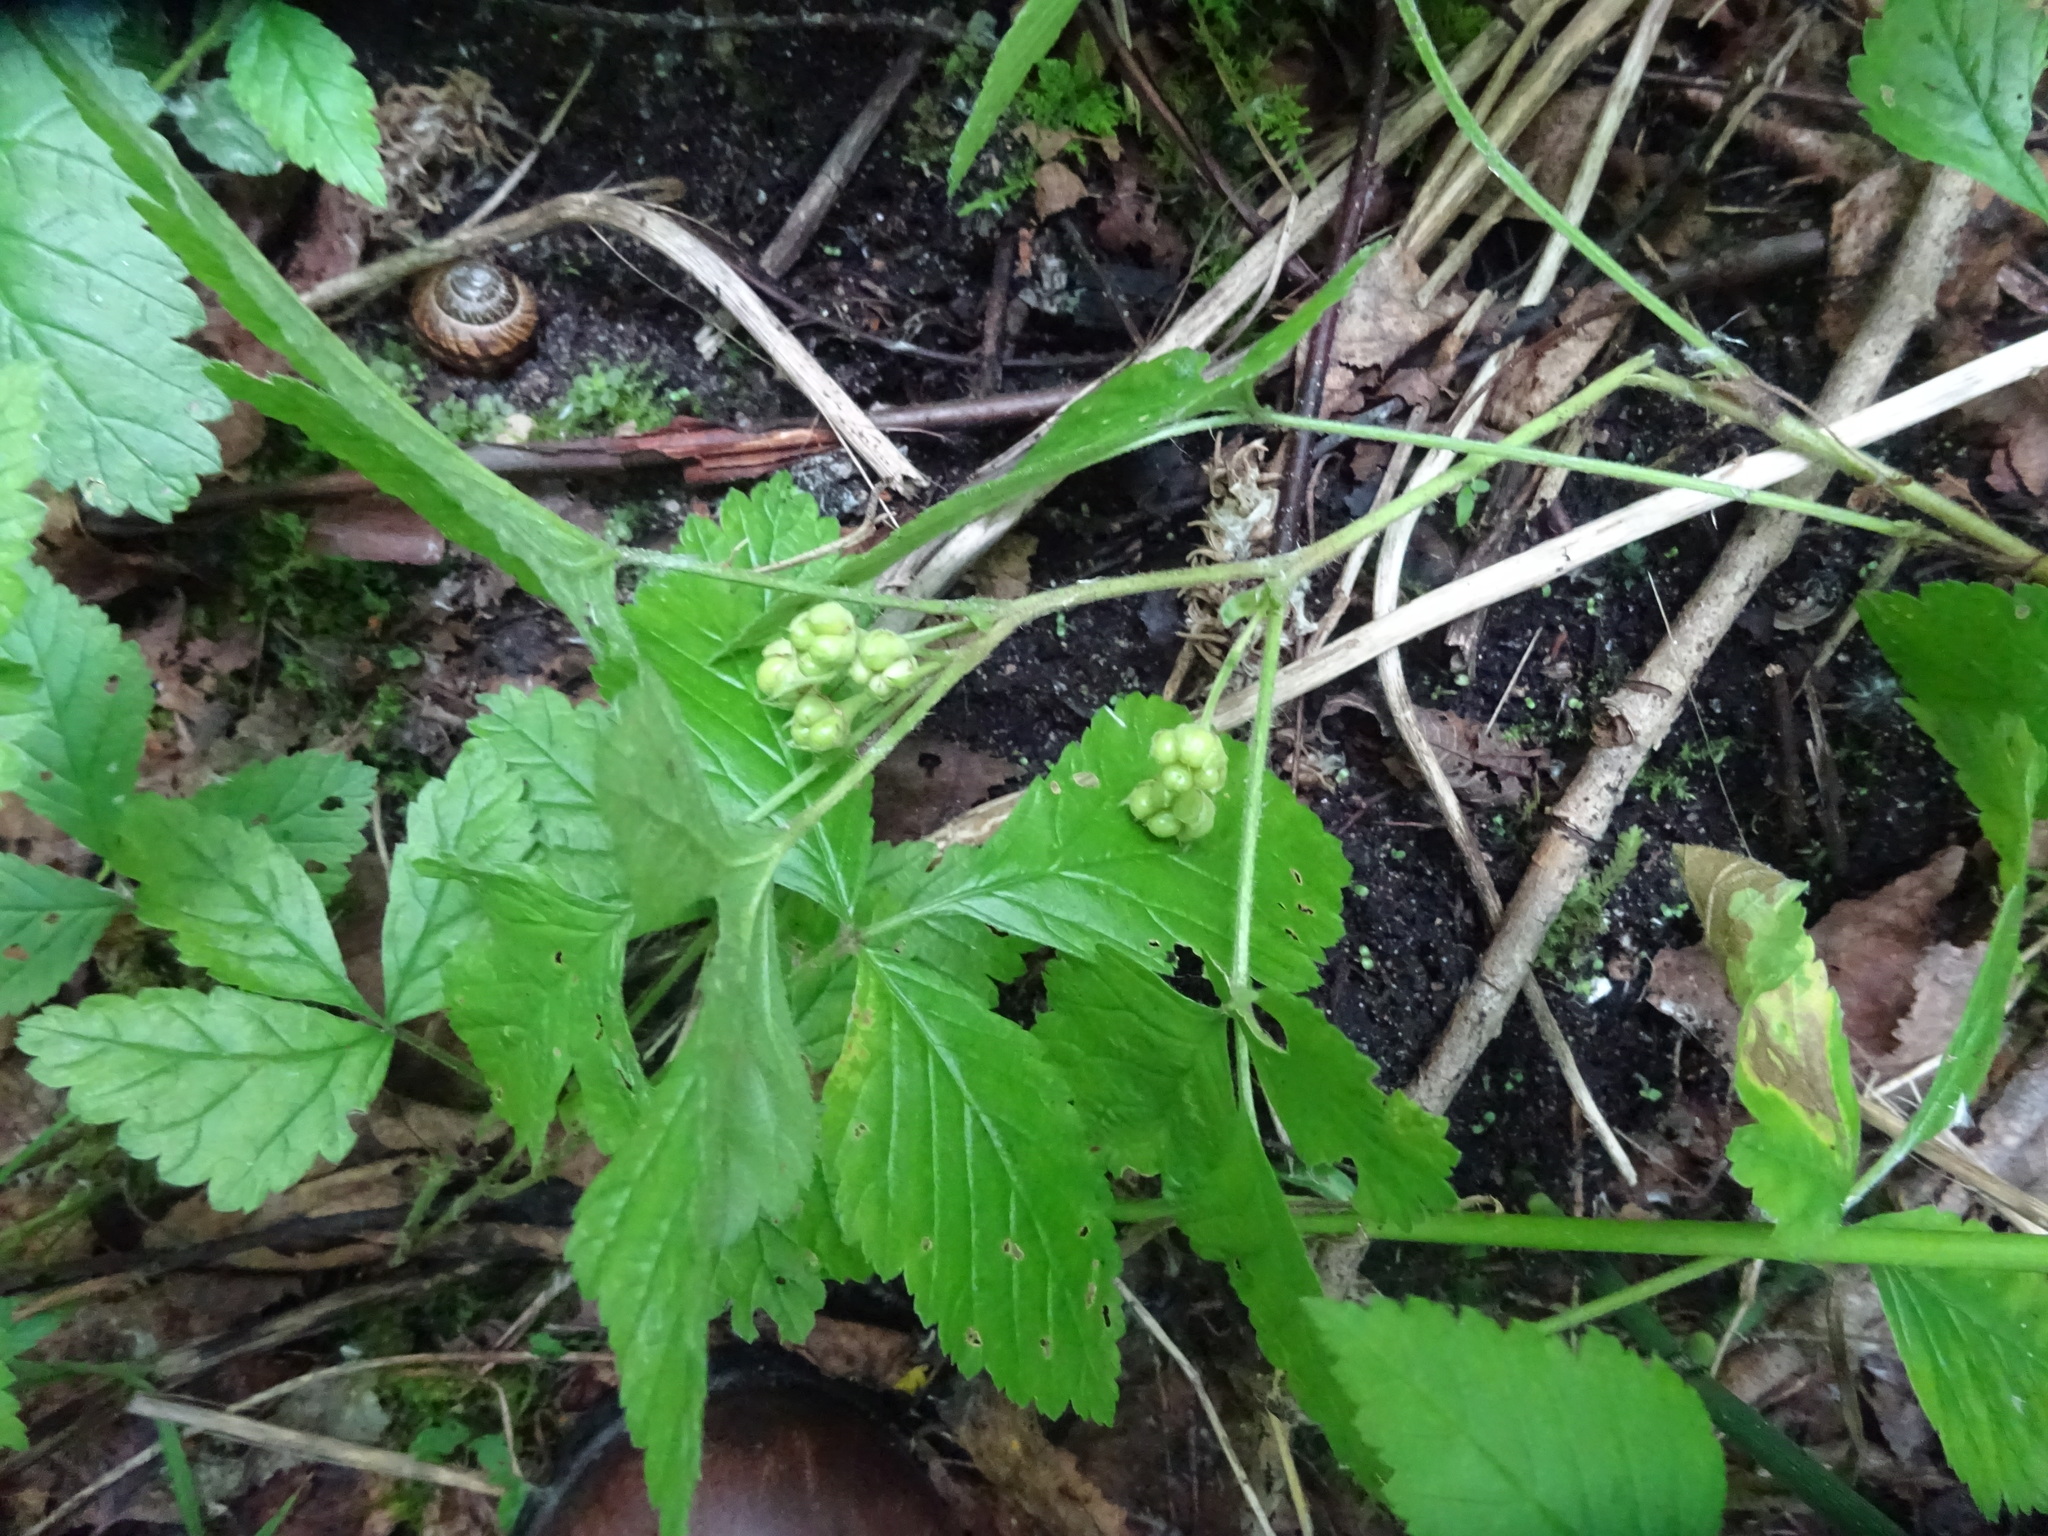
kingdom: Plantae
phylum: Tracheophyta
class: Magnoliopsida
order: Rosales
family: Rosaceae
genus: Rubus
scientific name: Rubus saxatilis
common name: Stone bramble
